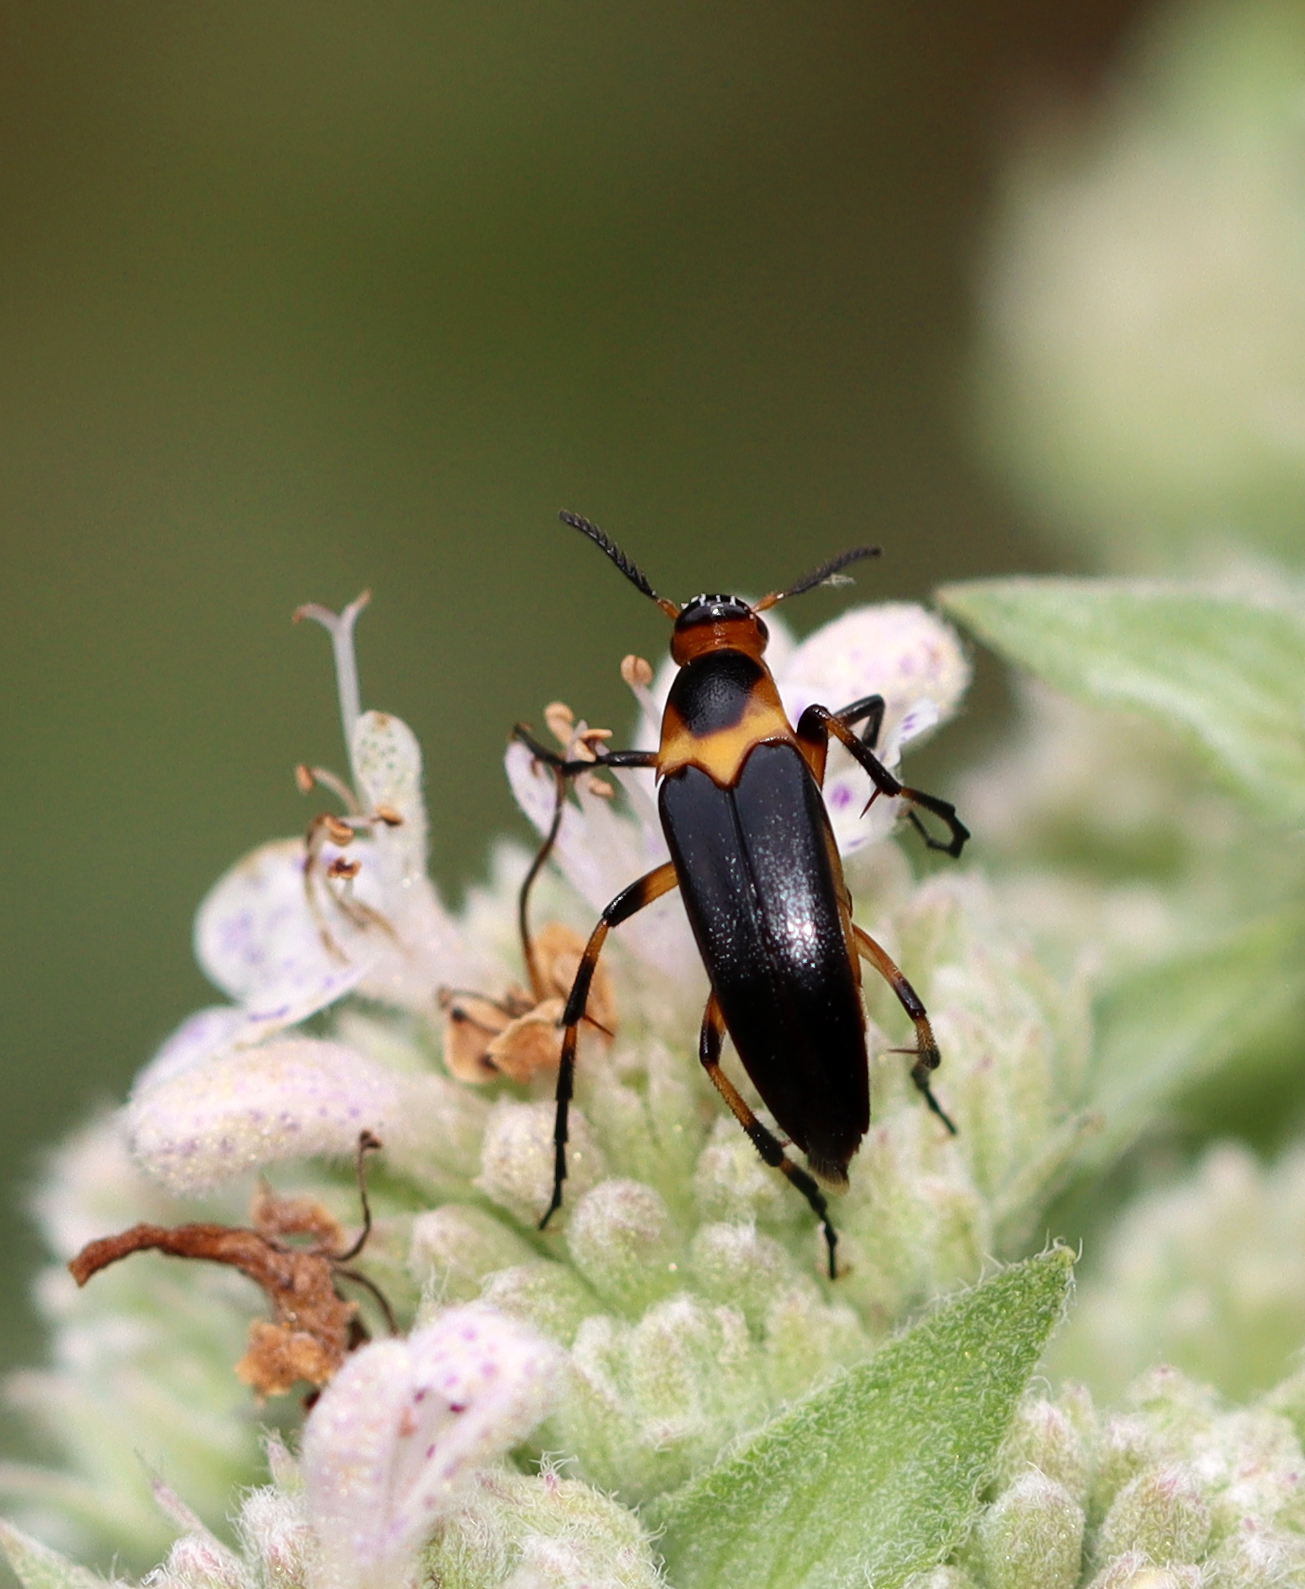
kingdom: Animalia
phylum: Arthropoda
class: Insecta
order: Coleoptera
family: Ripiphoridae
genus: Macrosiagon
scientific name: Macrosiagon limbatum
